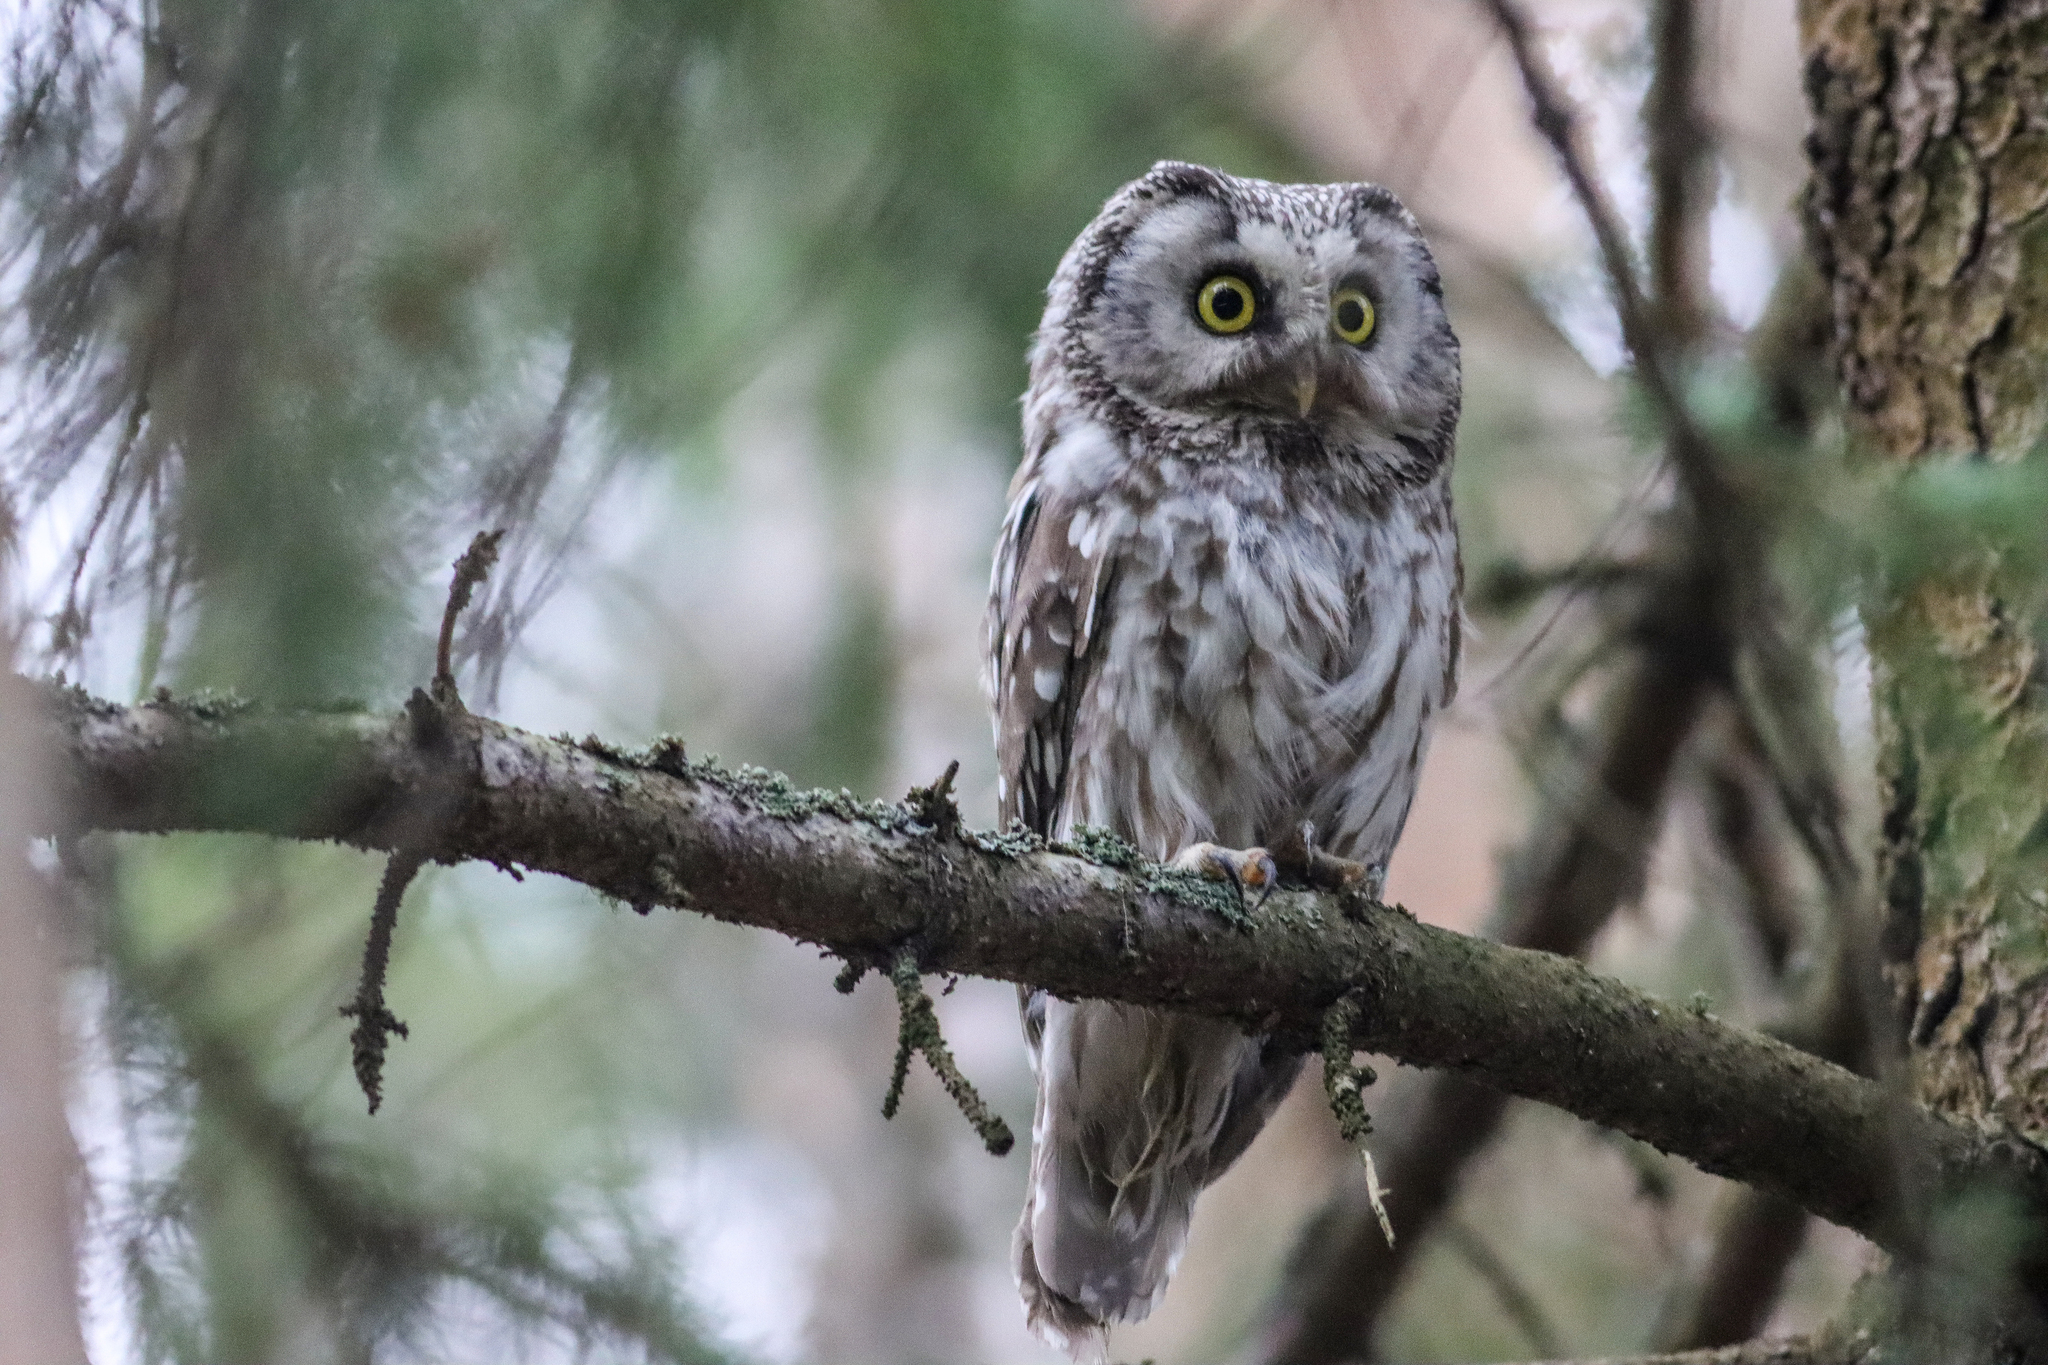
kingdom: Animalia
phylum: Chordata
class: Aves
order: Strigiformes
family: Strigidae
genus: Aegolius
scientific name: Aegolius funereus
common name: Boreal owl
